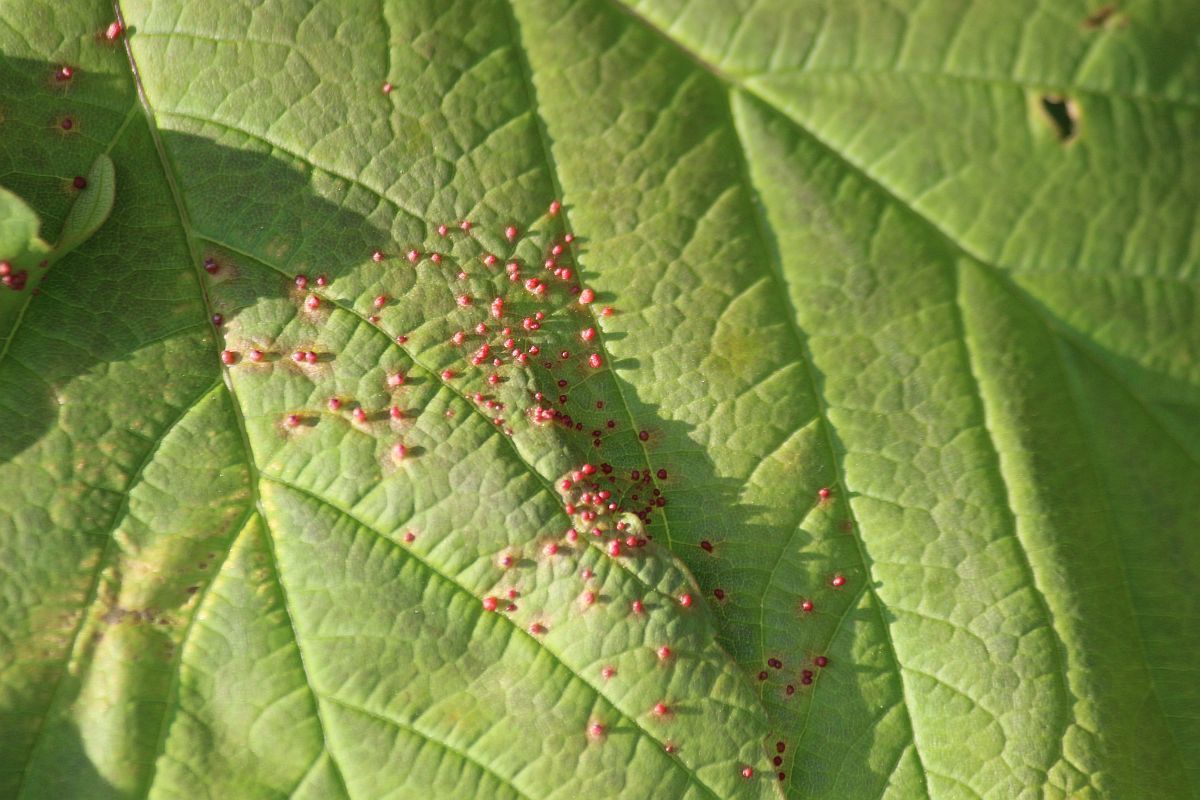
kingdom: Animalia
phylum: Arthropoda
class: Arachnida
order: Trombidiformes
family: Eriophyidae
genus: Aceria
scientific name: Aceria cephaloneus
